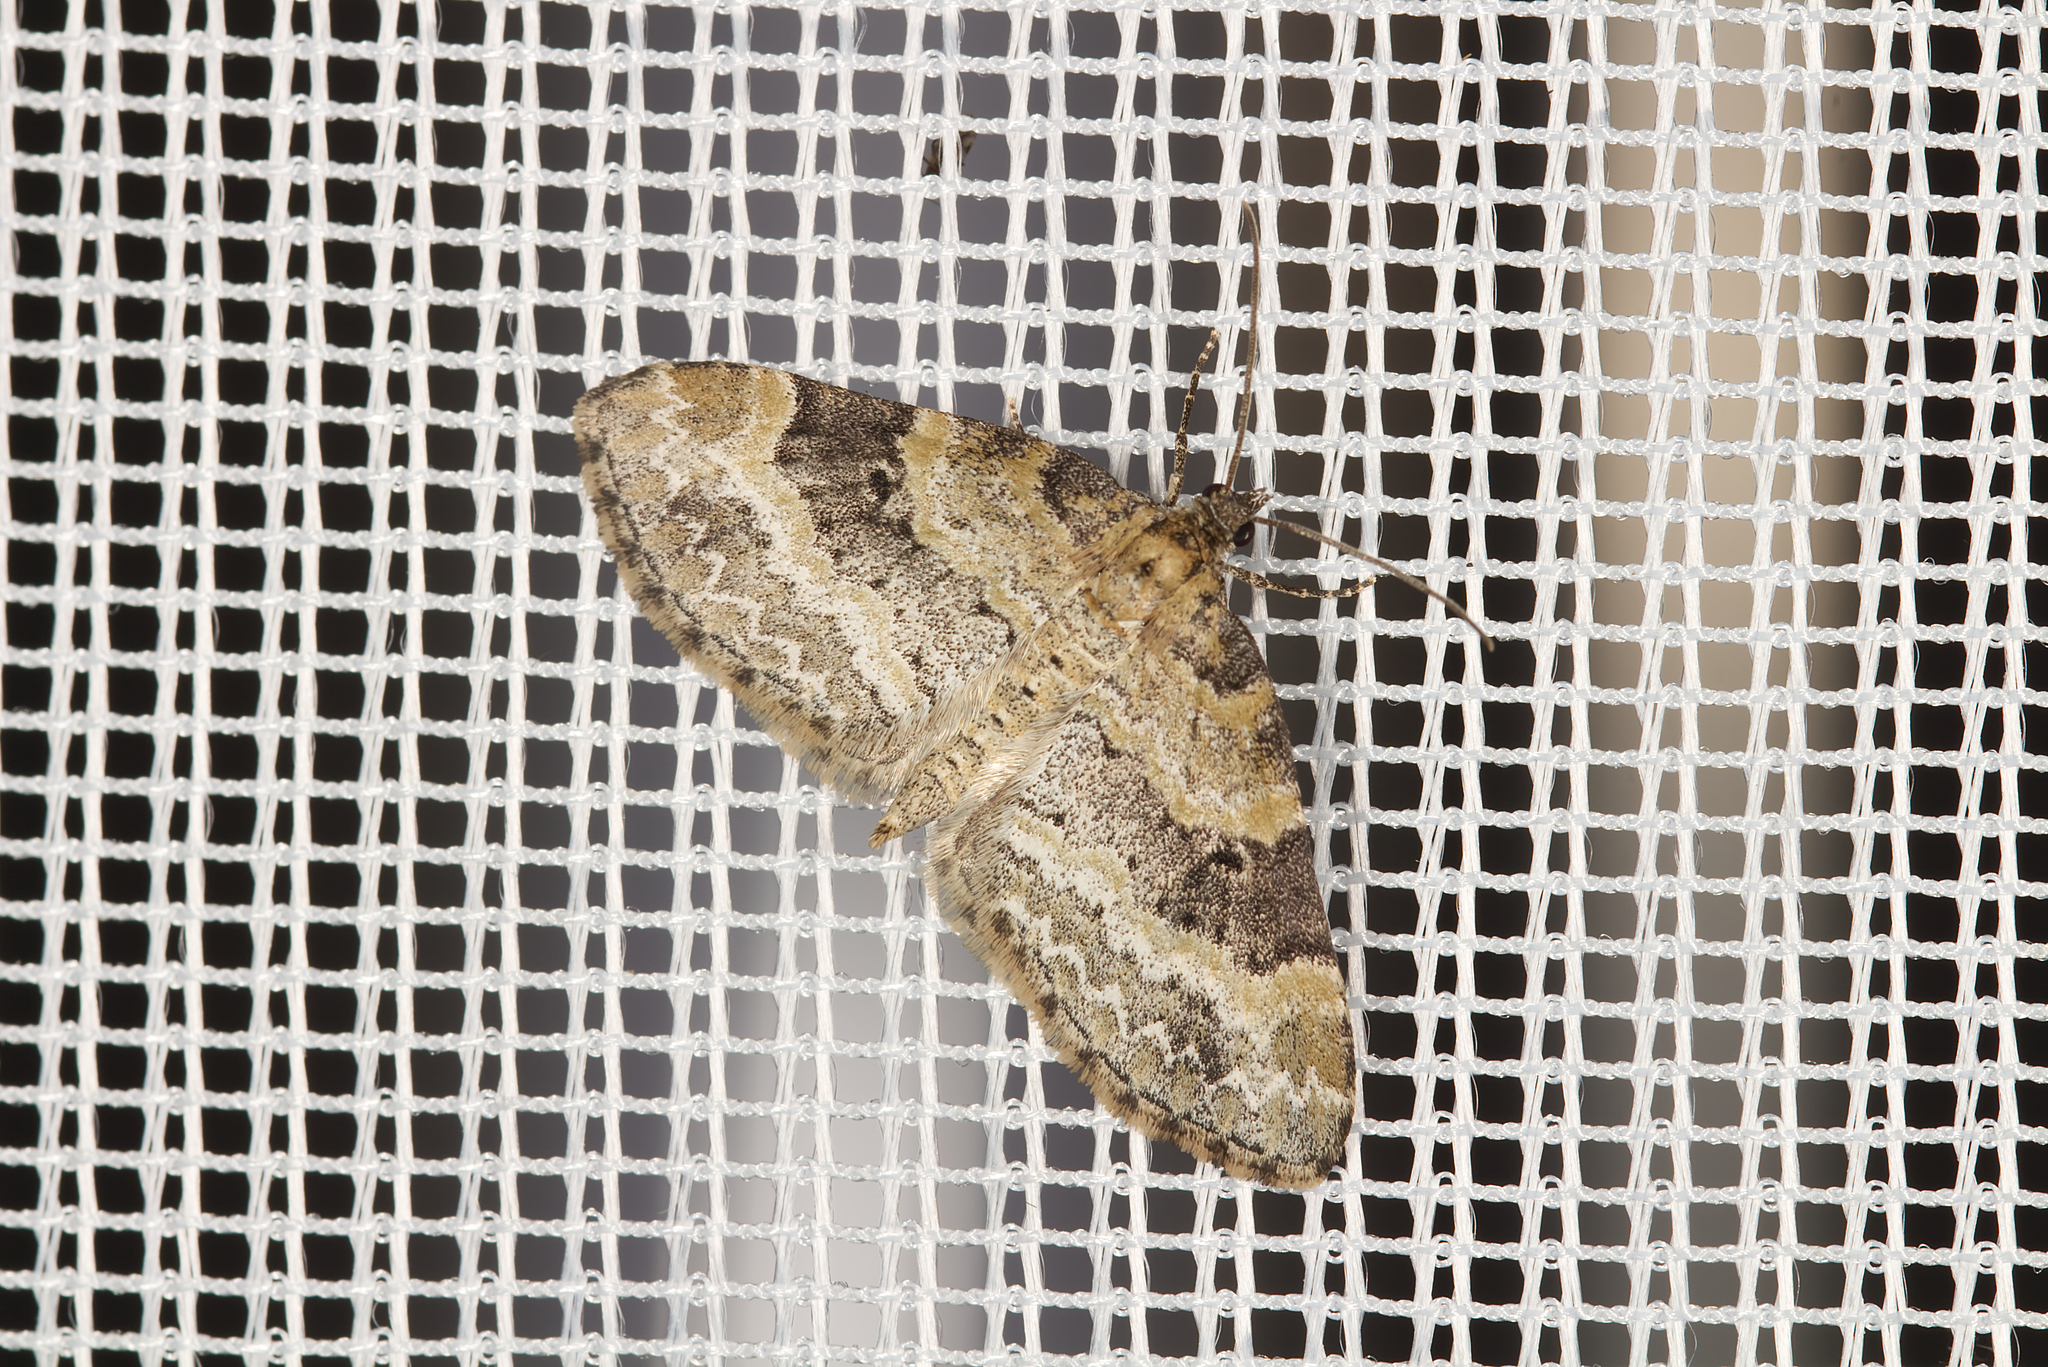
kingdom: Animalia
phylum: Arthropoda
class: Insecta
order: Lepidoptera
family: Geometridae
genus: Pterapherapteryx
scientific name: Pterapherapteryx sexalata
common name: Small seraphim
